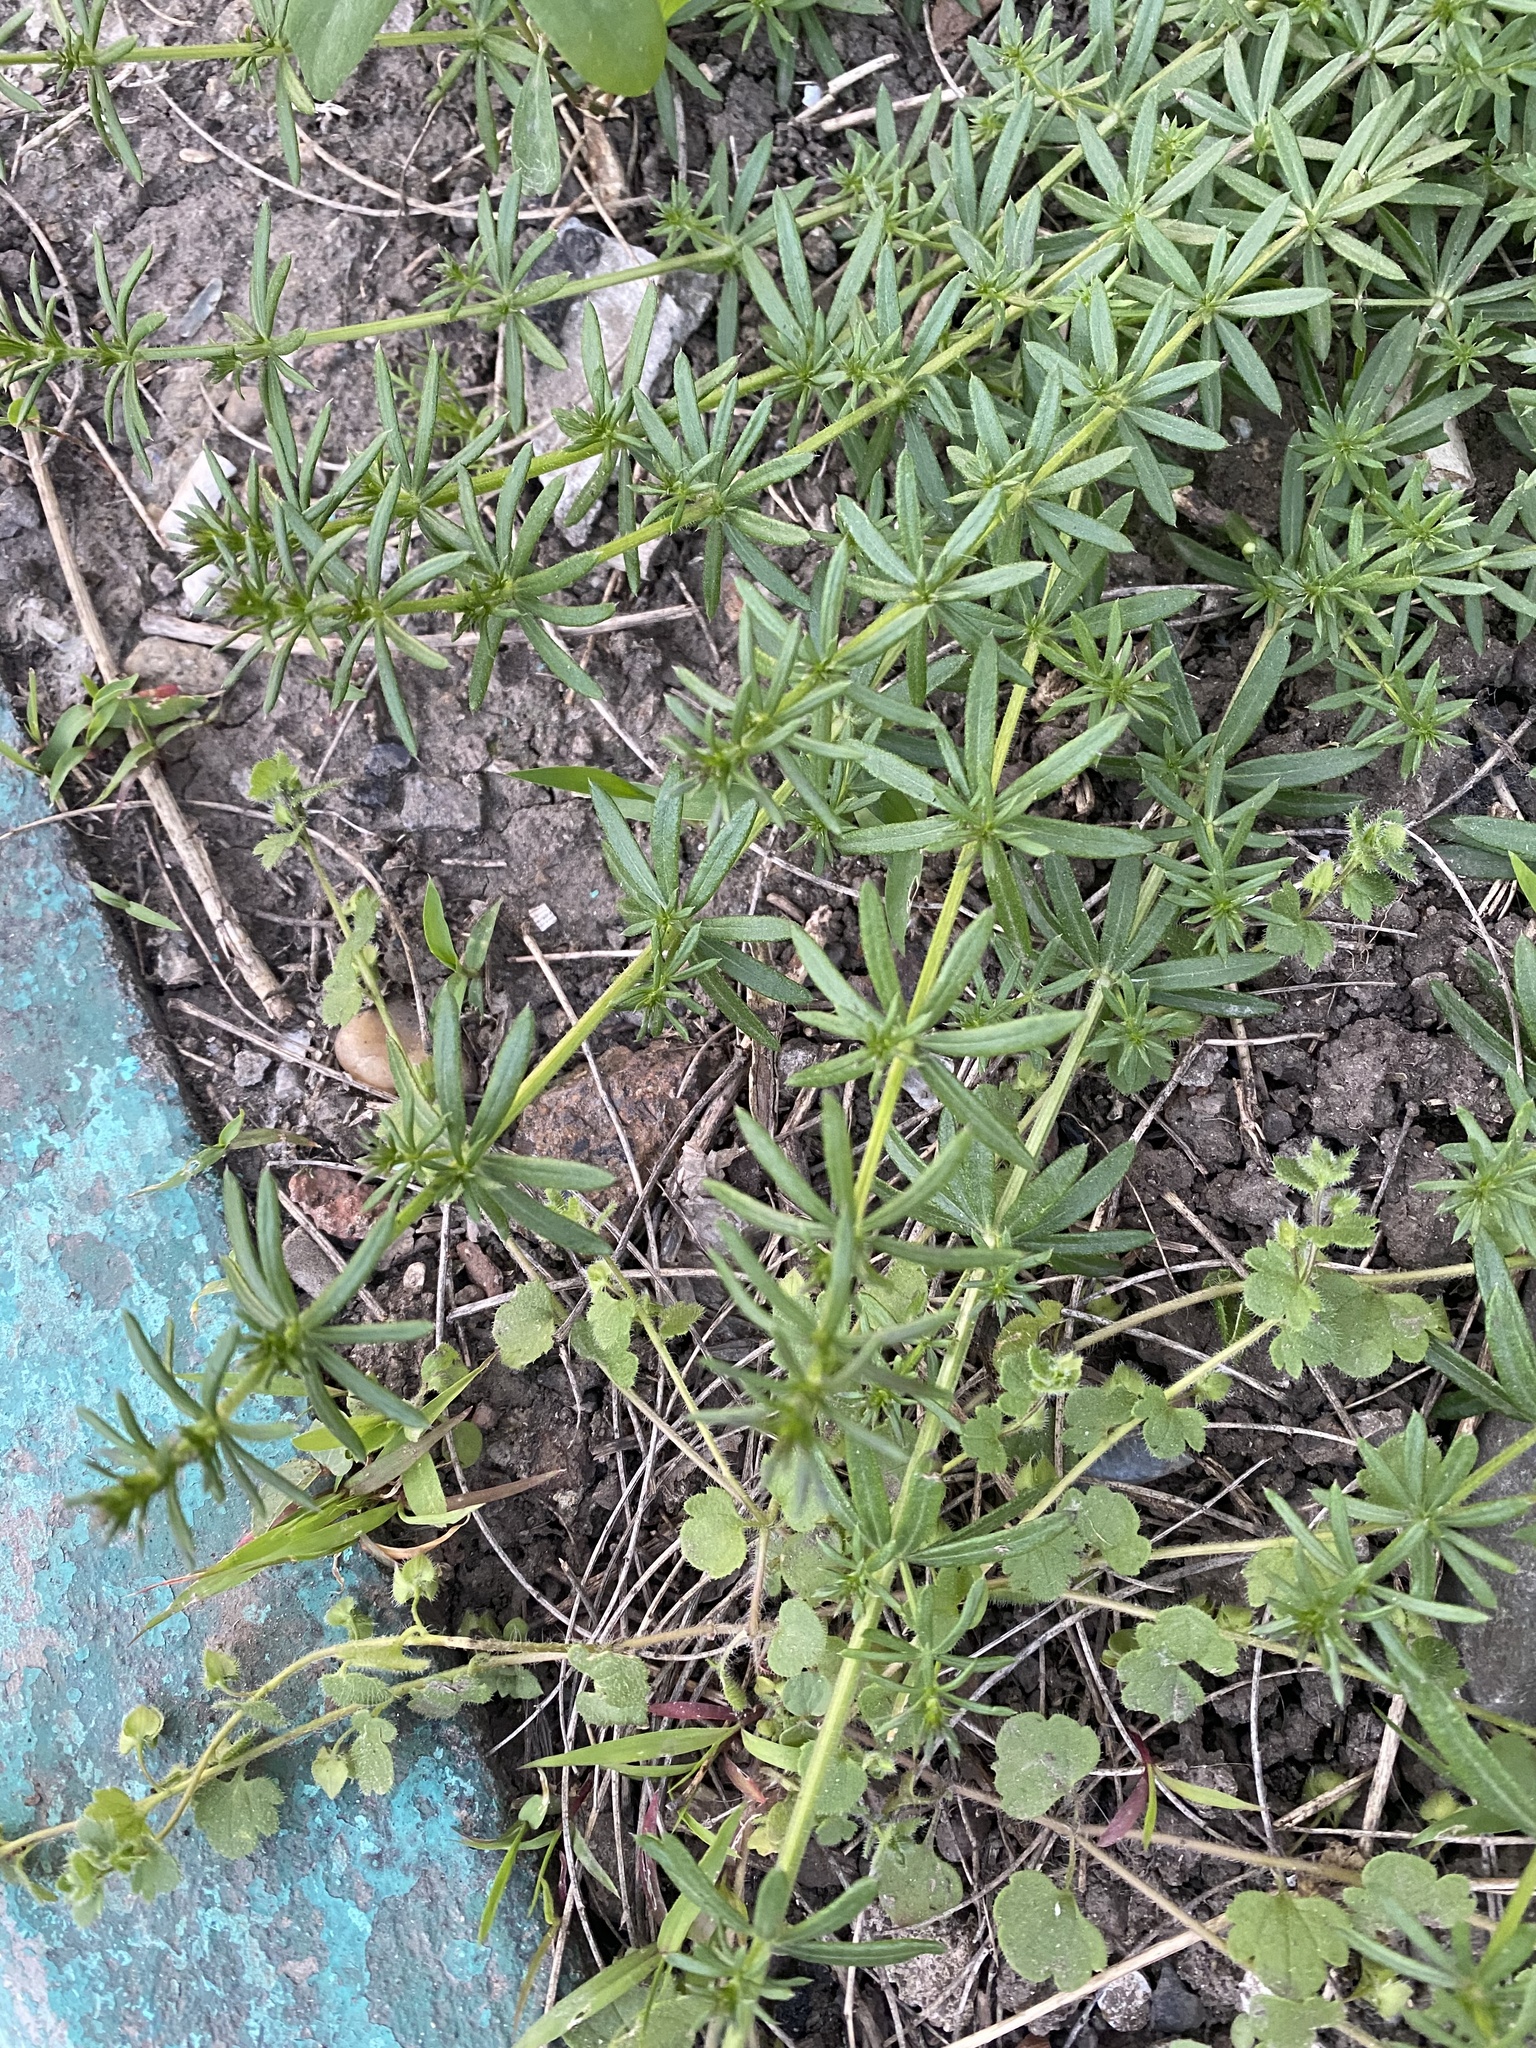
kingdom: Plantae
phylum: Tracheophyta
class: Magnoliopsida
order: Gentianales
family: Rubiaceae
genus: Galium
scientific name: Galium humifusum
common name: Spreading bedstraw
